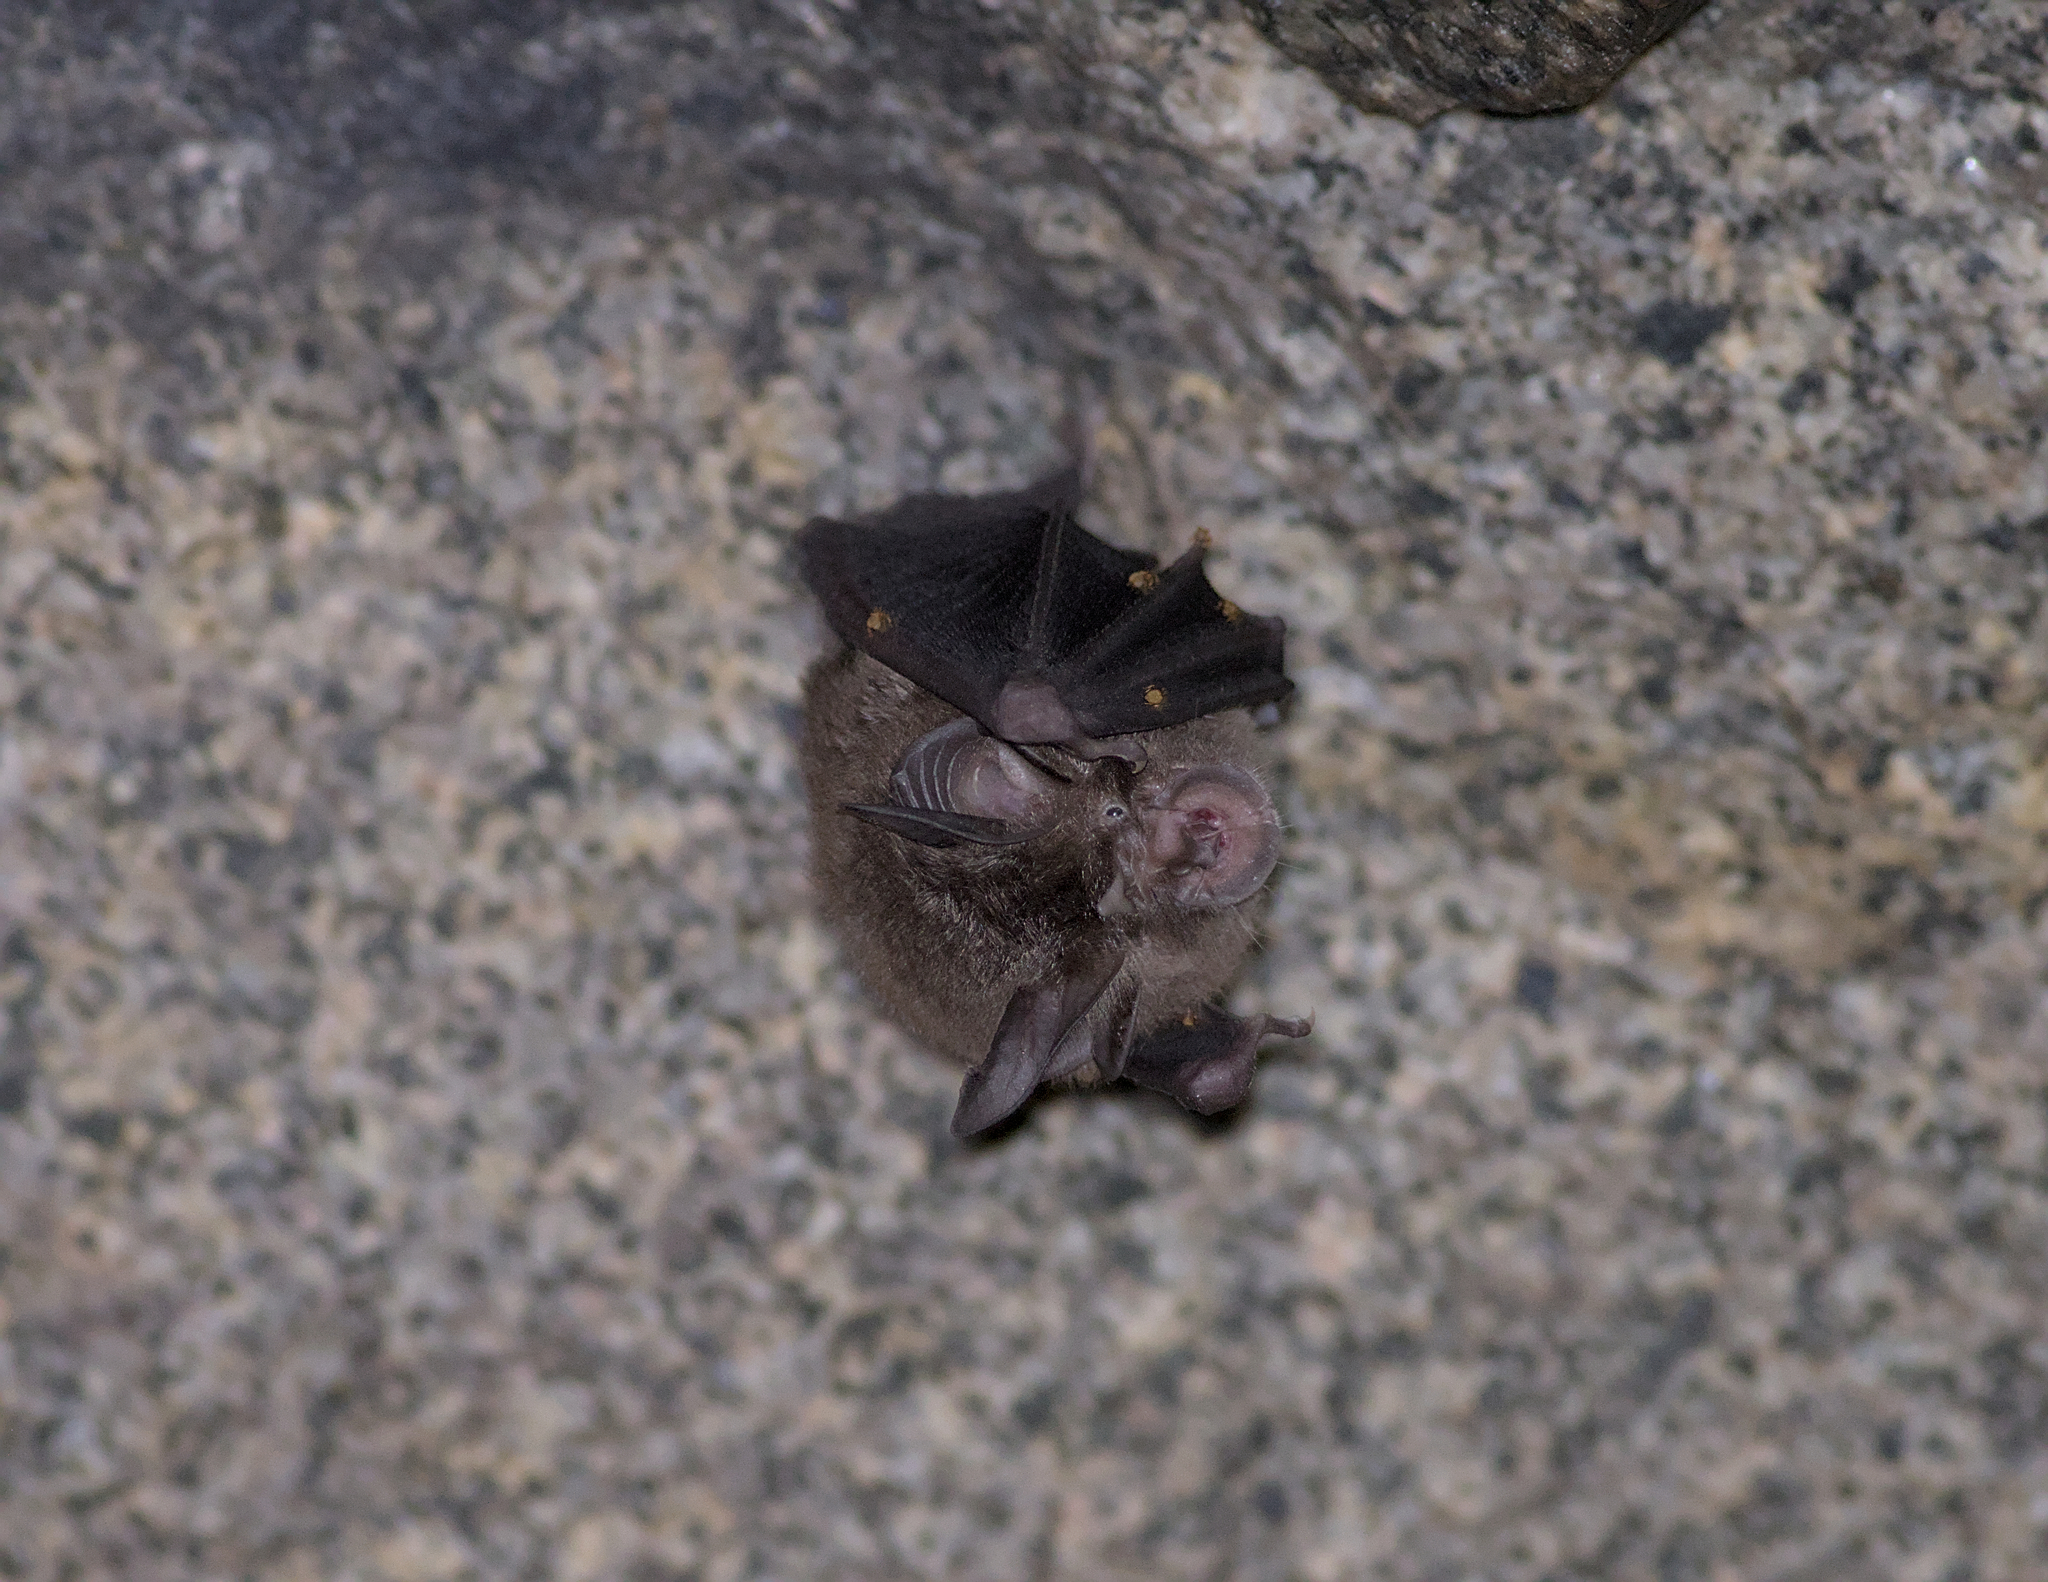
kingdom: Animalia
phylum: Chordata
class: Mammalia
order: Chiroptera
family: Rhinolophidae
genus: Rhinolophus
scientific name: Rhinolophus megaphyllus
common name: Smaller horseshoe bat
